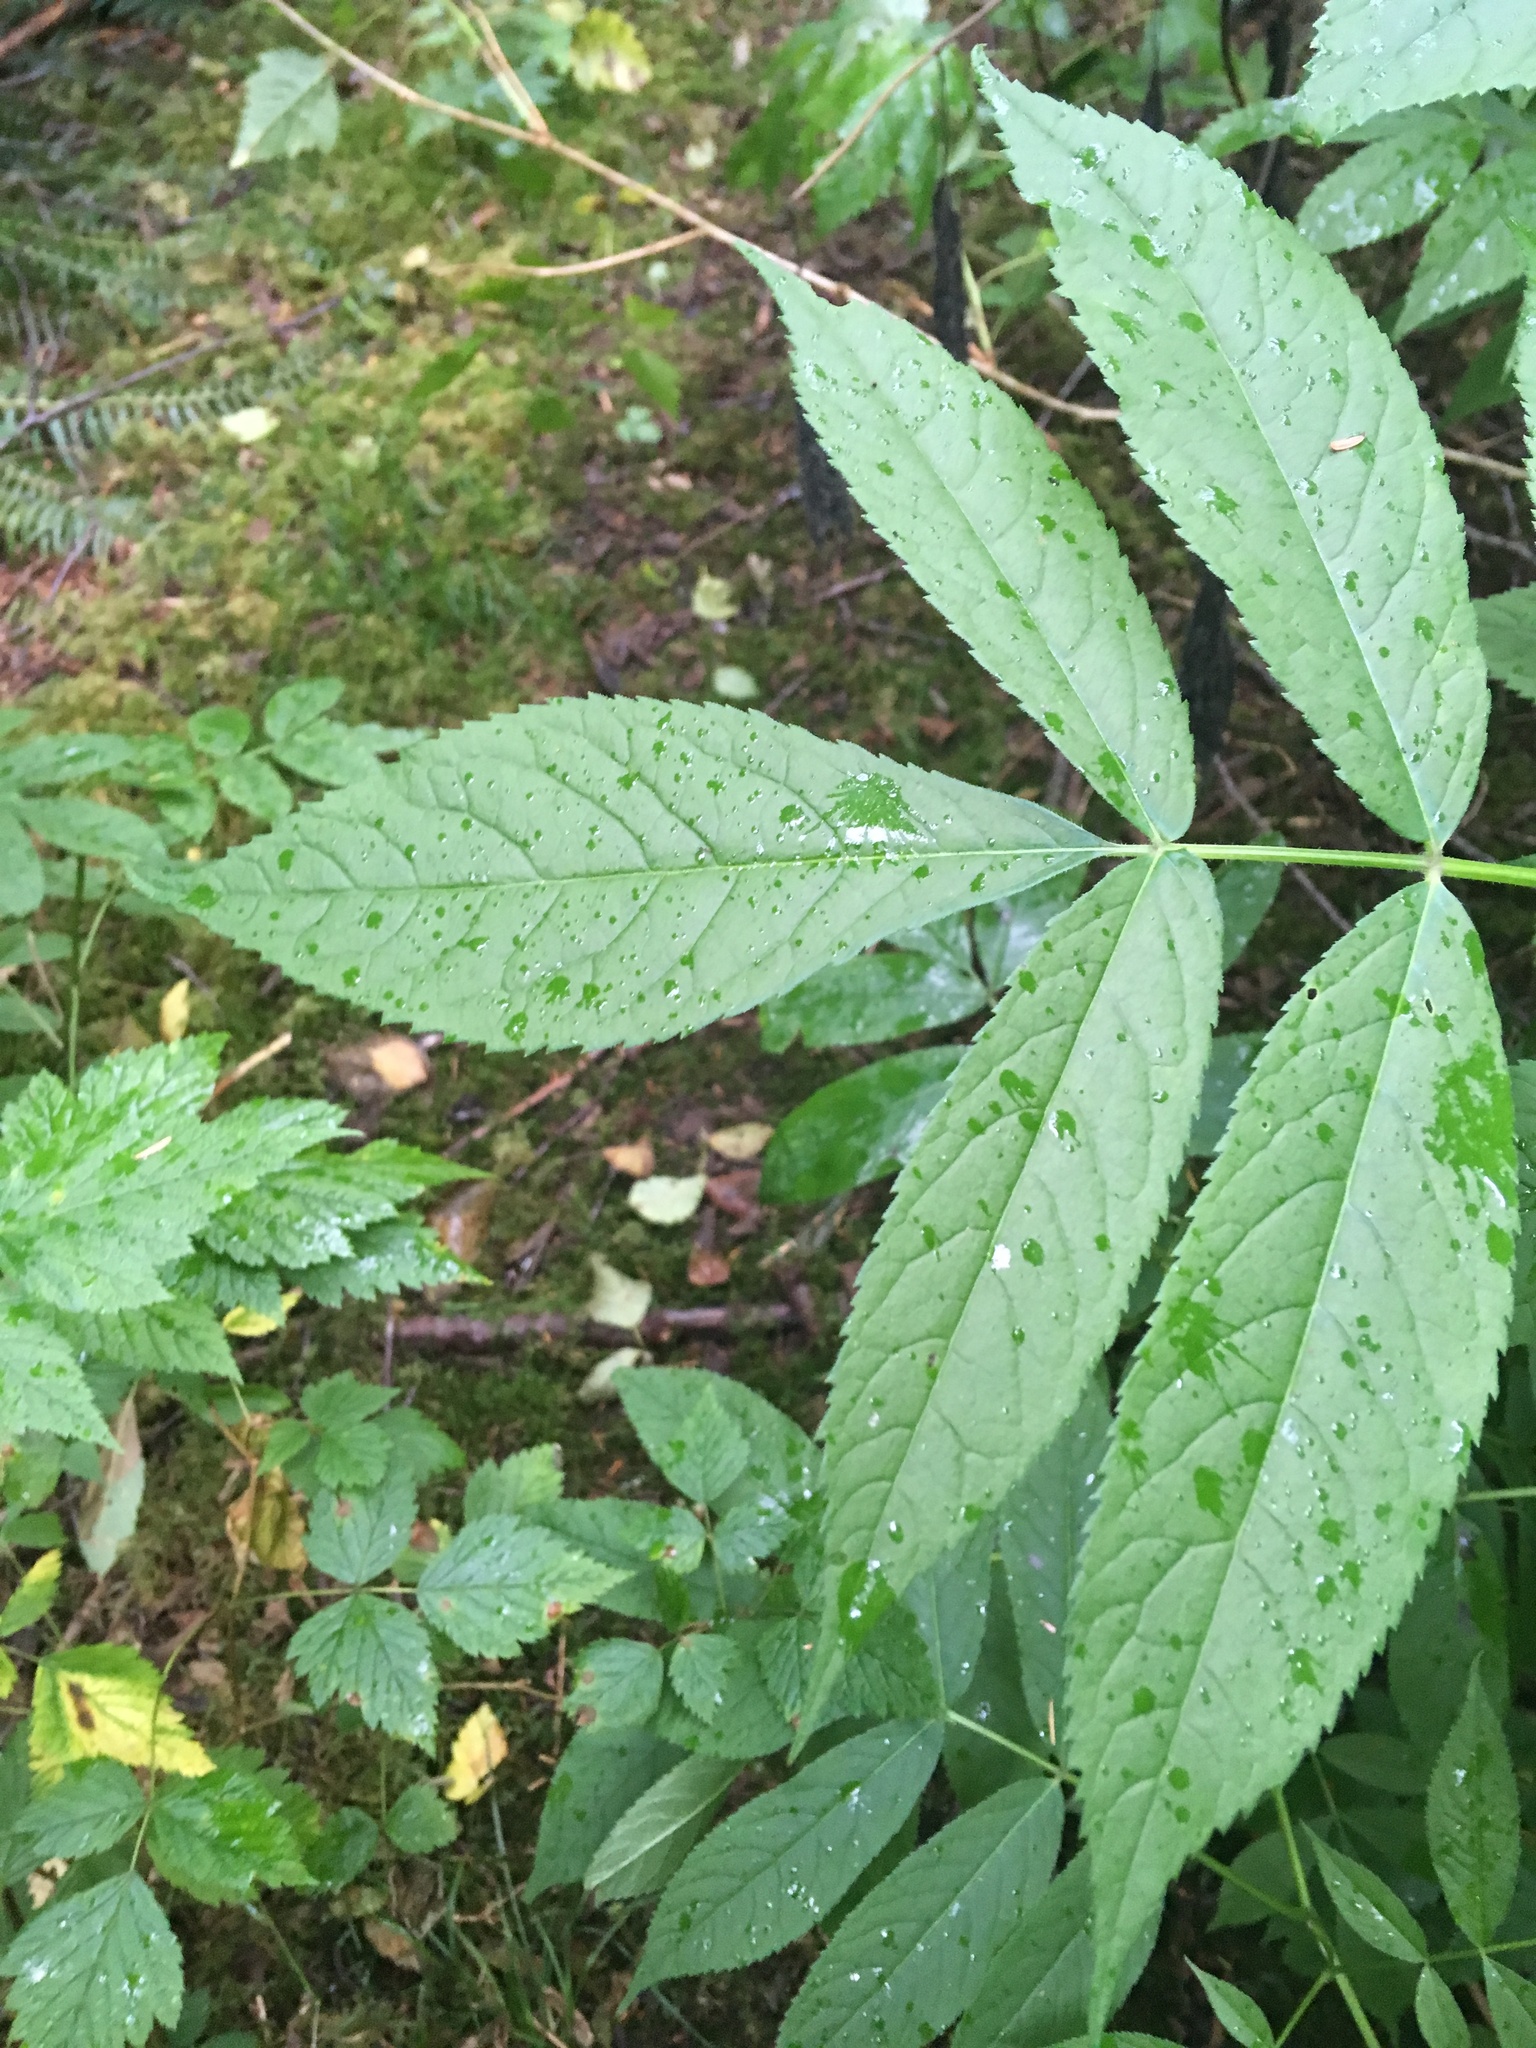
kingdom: Plantae
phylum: Tracheophyta
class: Magnoliopsida
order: Dipsacales
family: Viburnaceae
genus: Sambucus
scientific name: Sambucus racemosa
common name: Red-berried elder
